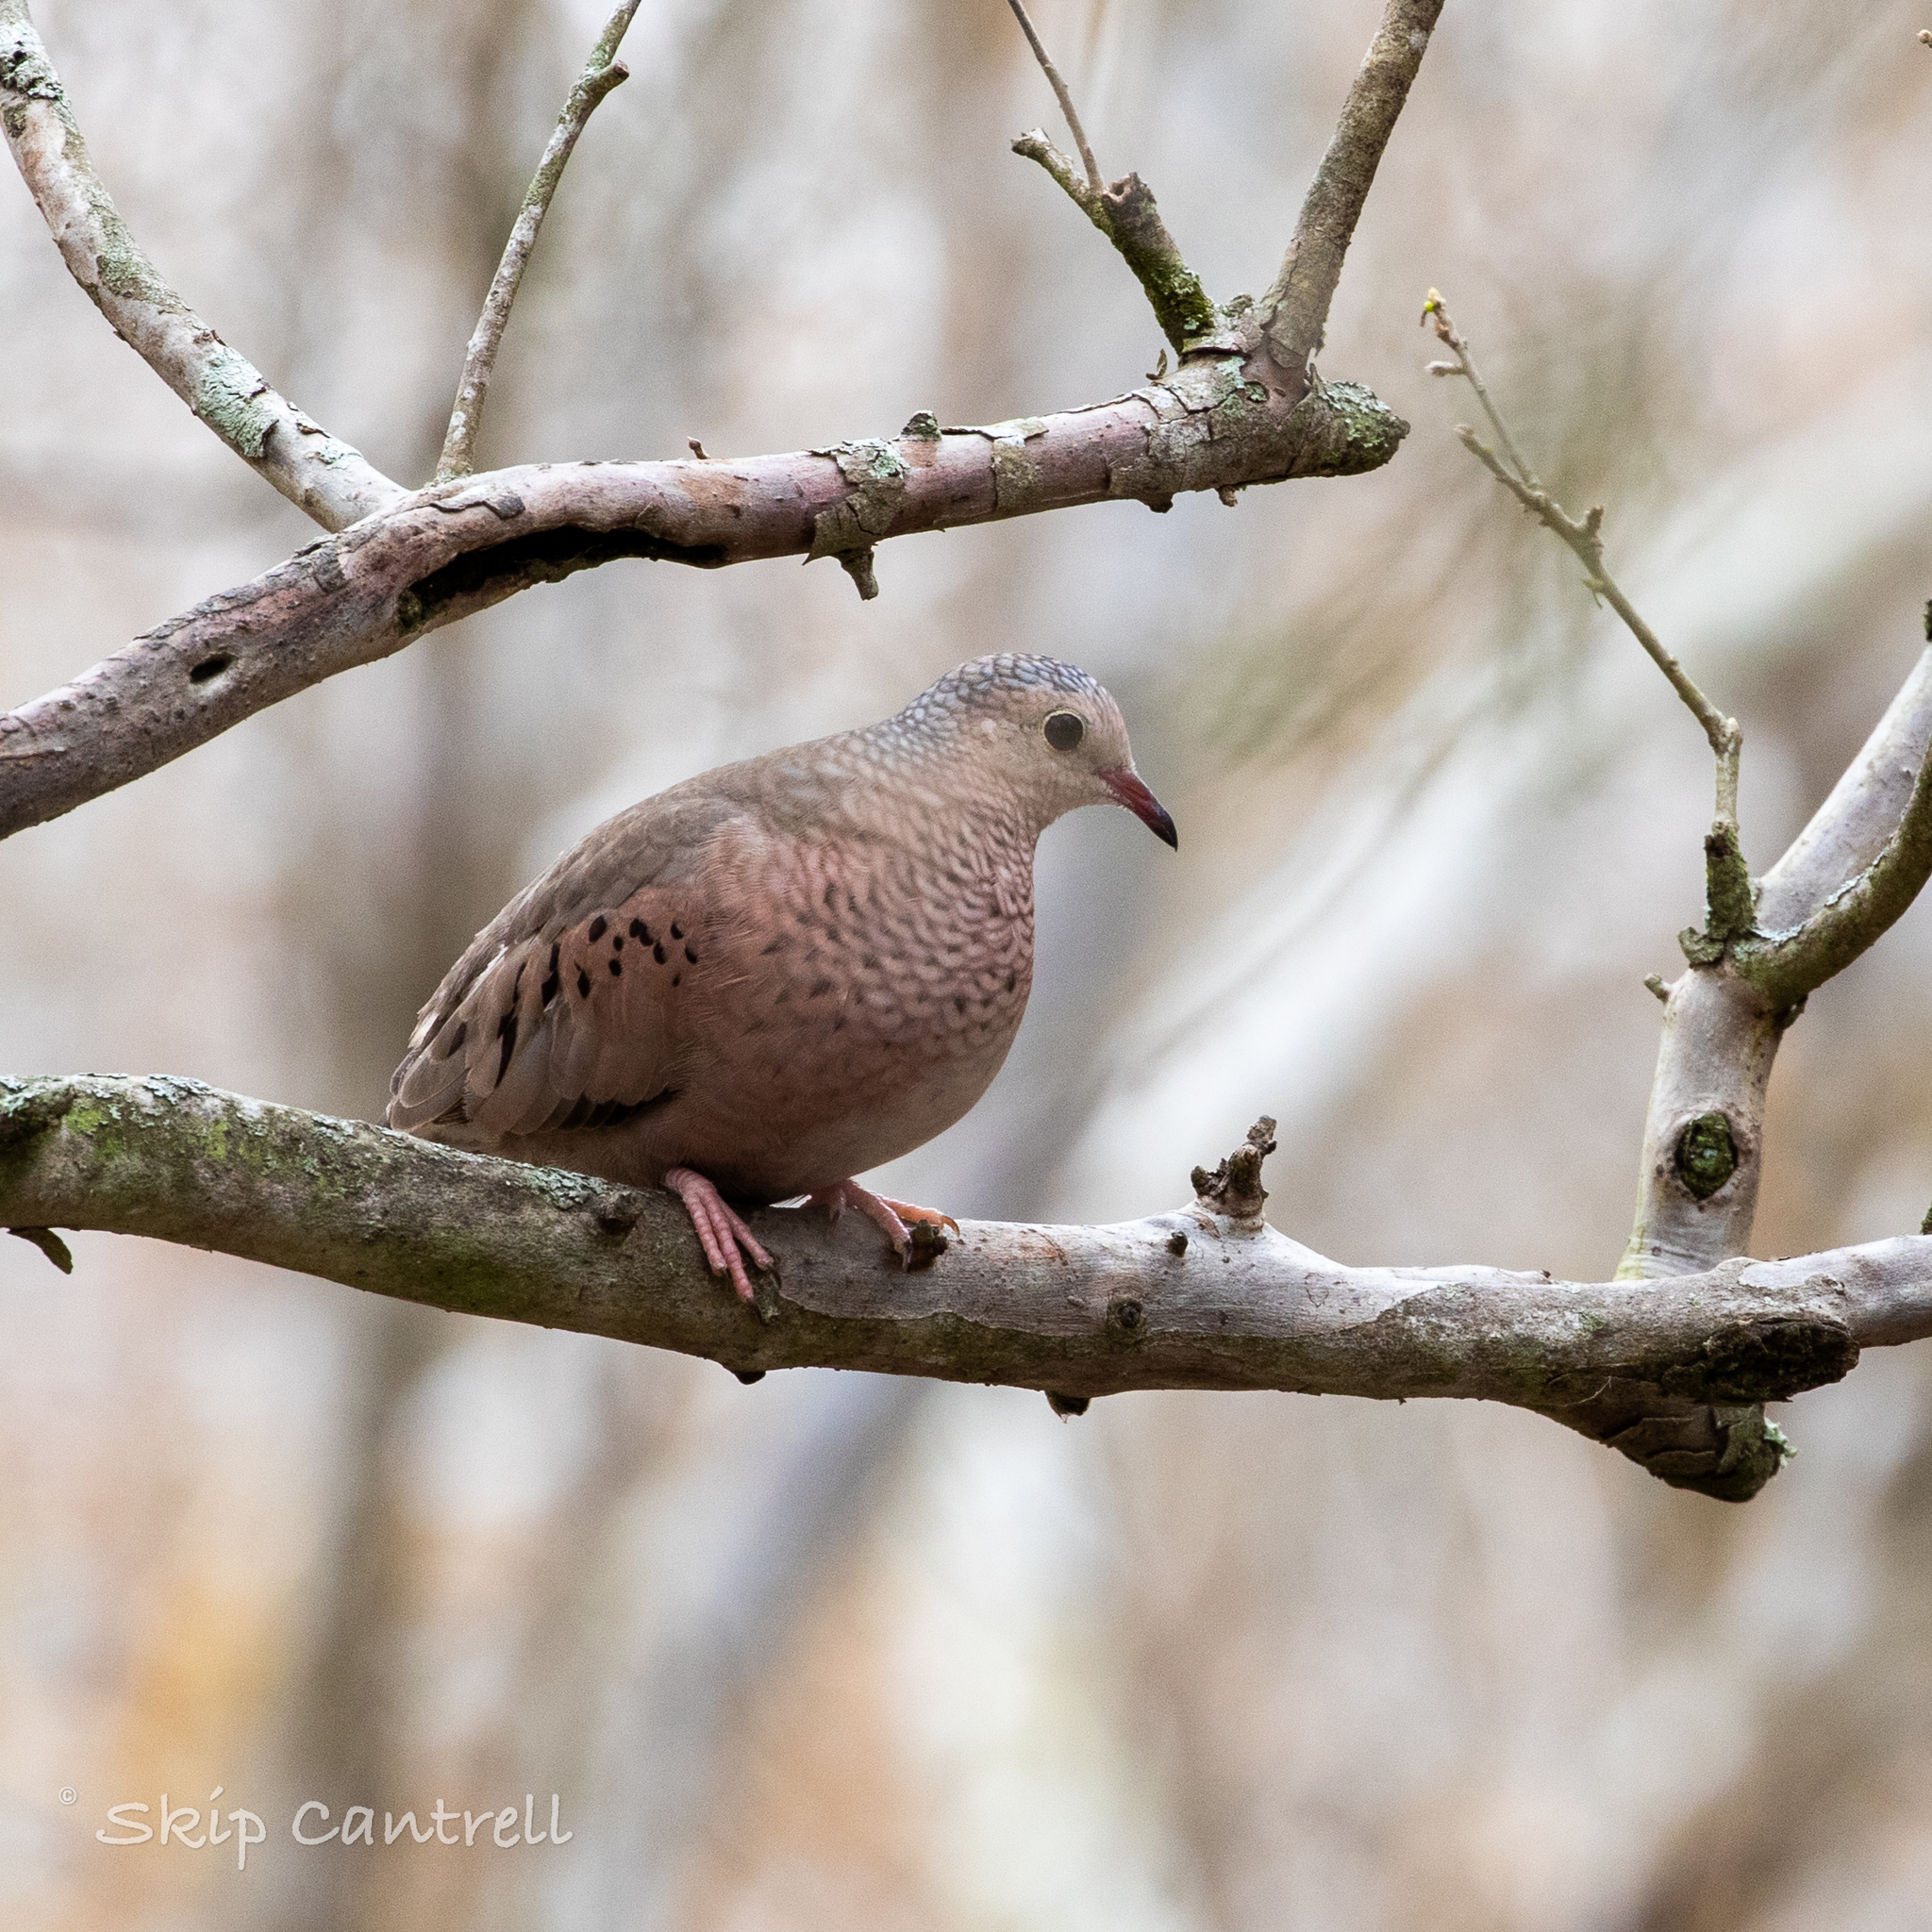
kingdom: Animalia
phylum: Chordata
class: Aves
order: Columbiformes
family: Columbidae
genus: Columbina
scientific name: Columbina passerina
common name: Common ground-dove
